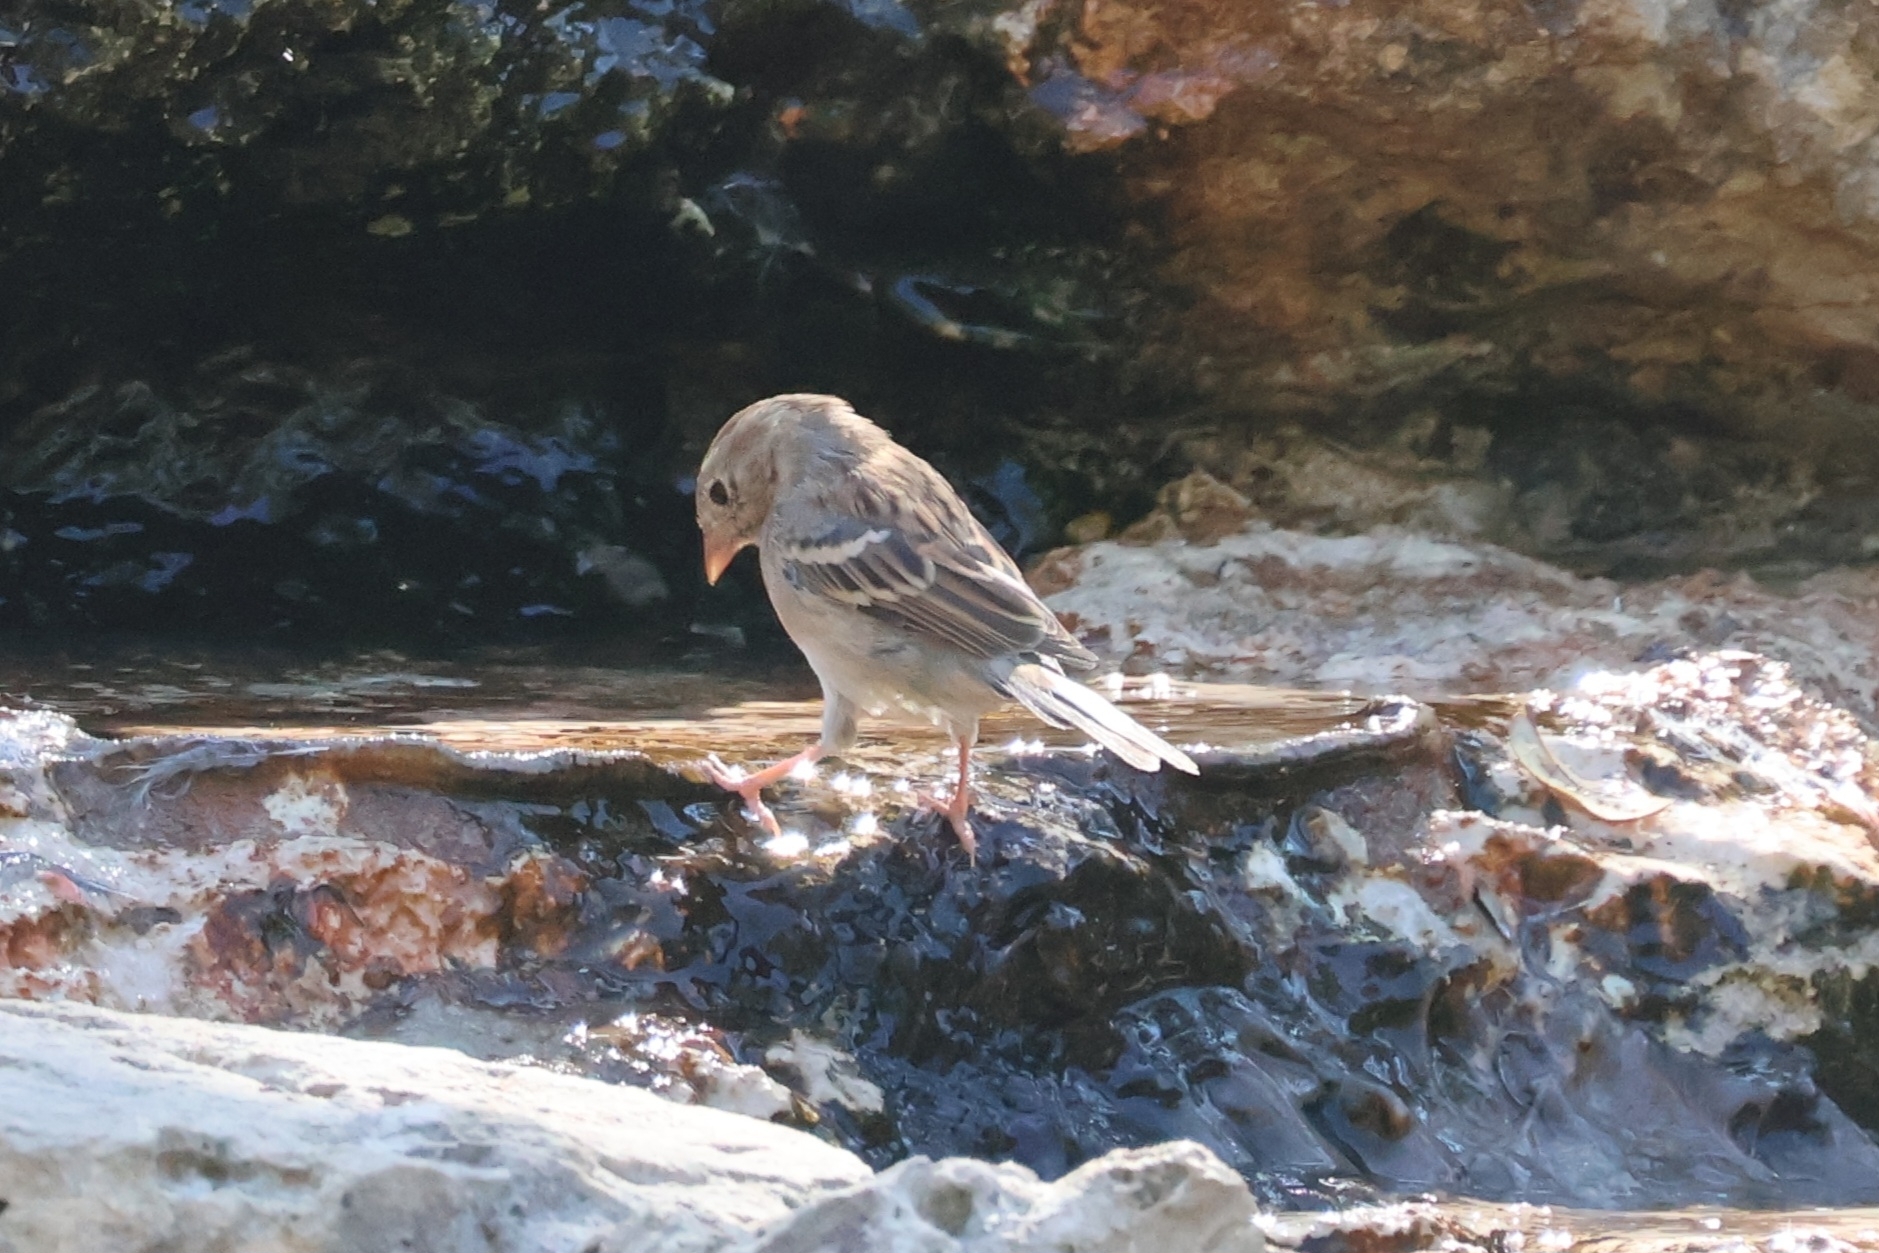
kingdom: Animalia
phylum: Chordata
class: Aves
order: Passeriformes
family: Passerellidae
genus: Spizella
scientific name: Spizella pusilla
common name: Field sparrow
